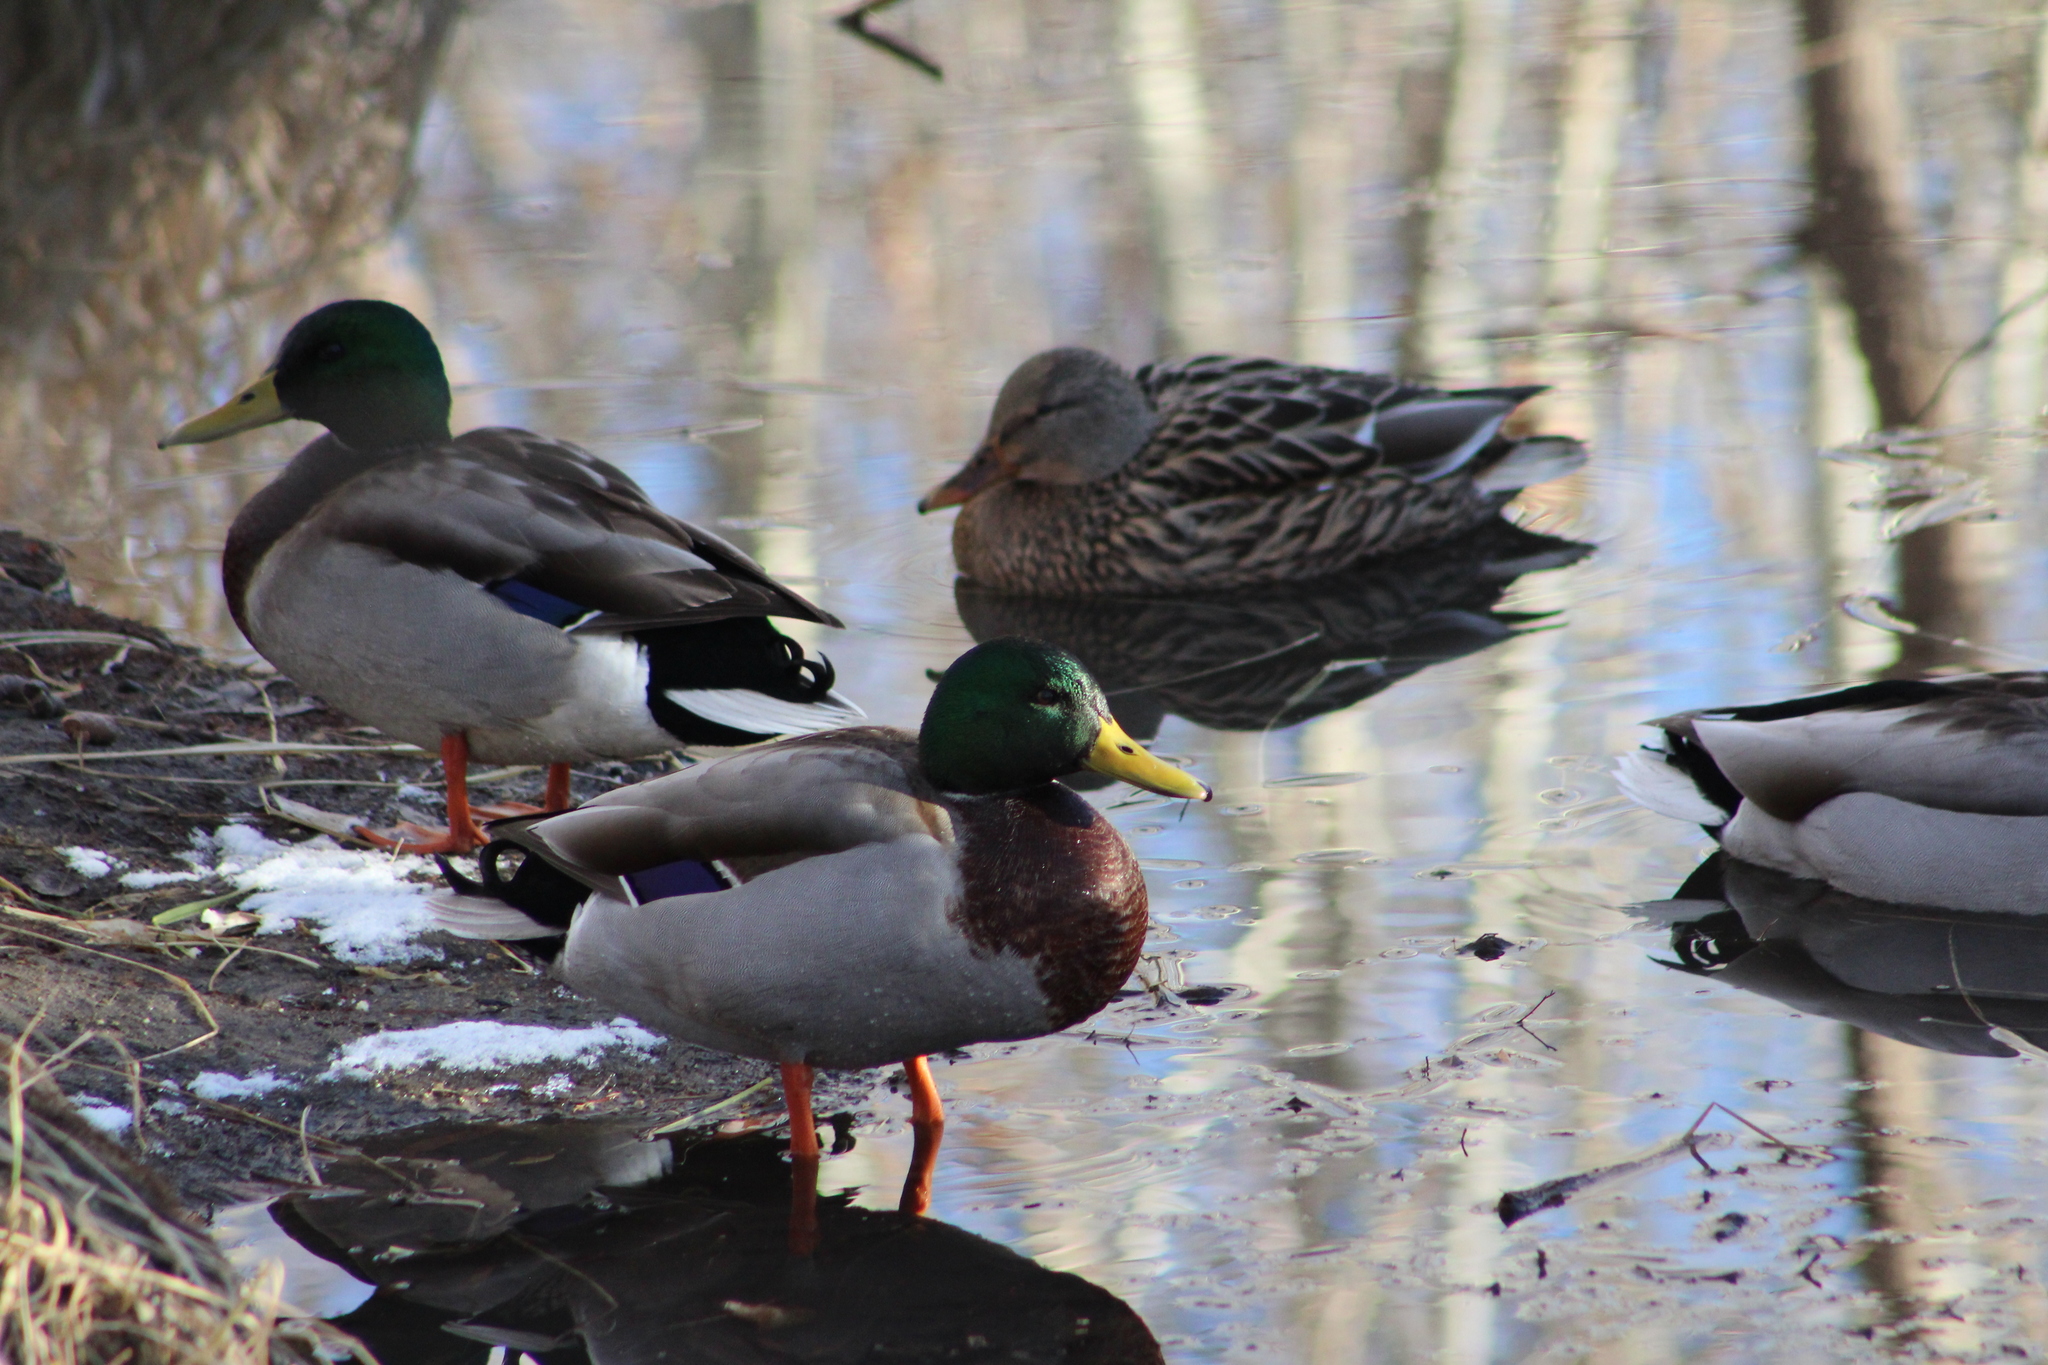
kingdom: Animalia
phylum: Chordata
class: Aves
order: Anseriformes
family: Anatidae
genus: Anas
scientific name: Anas platyrhynchos
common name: Mallard
